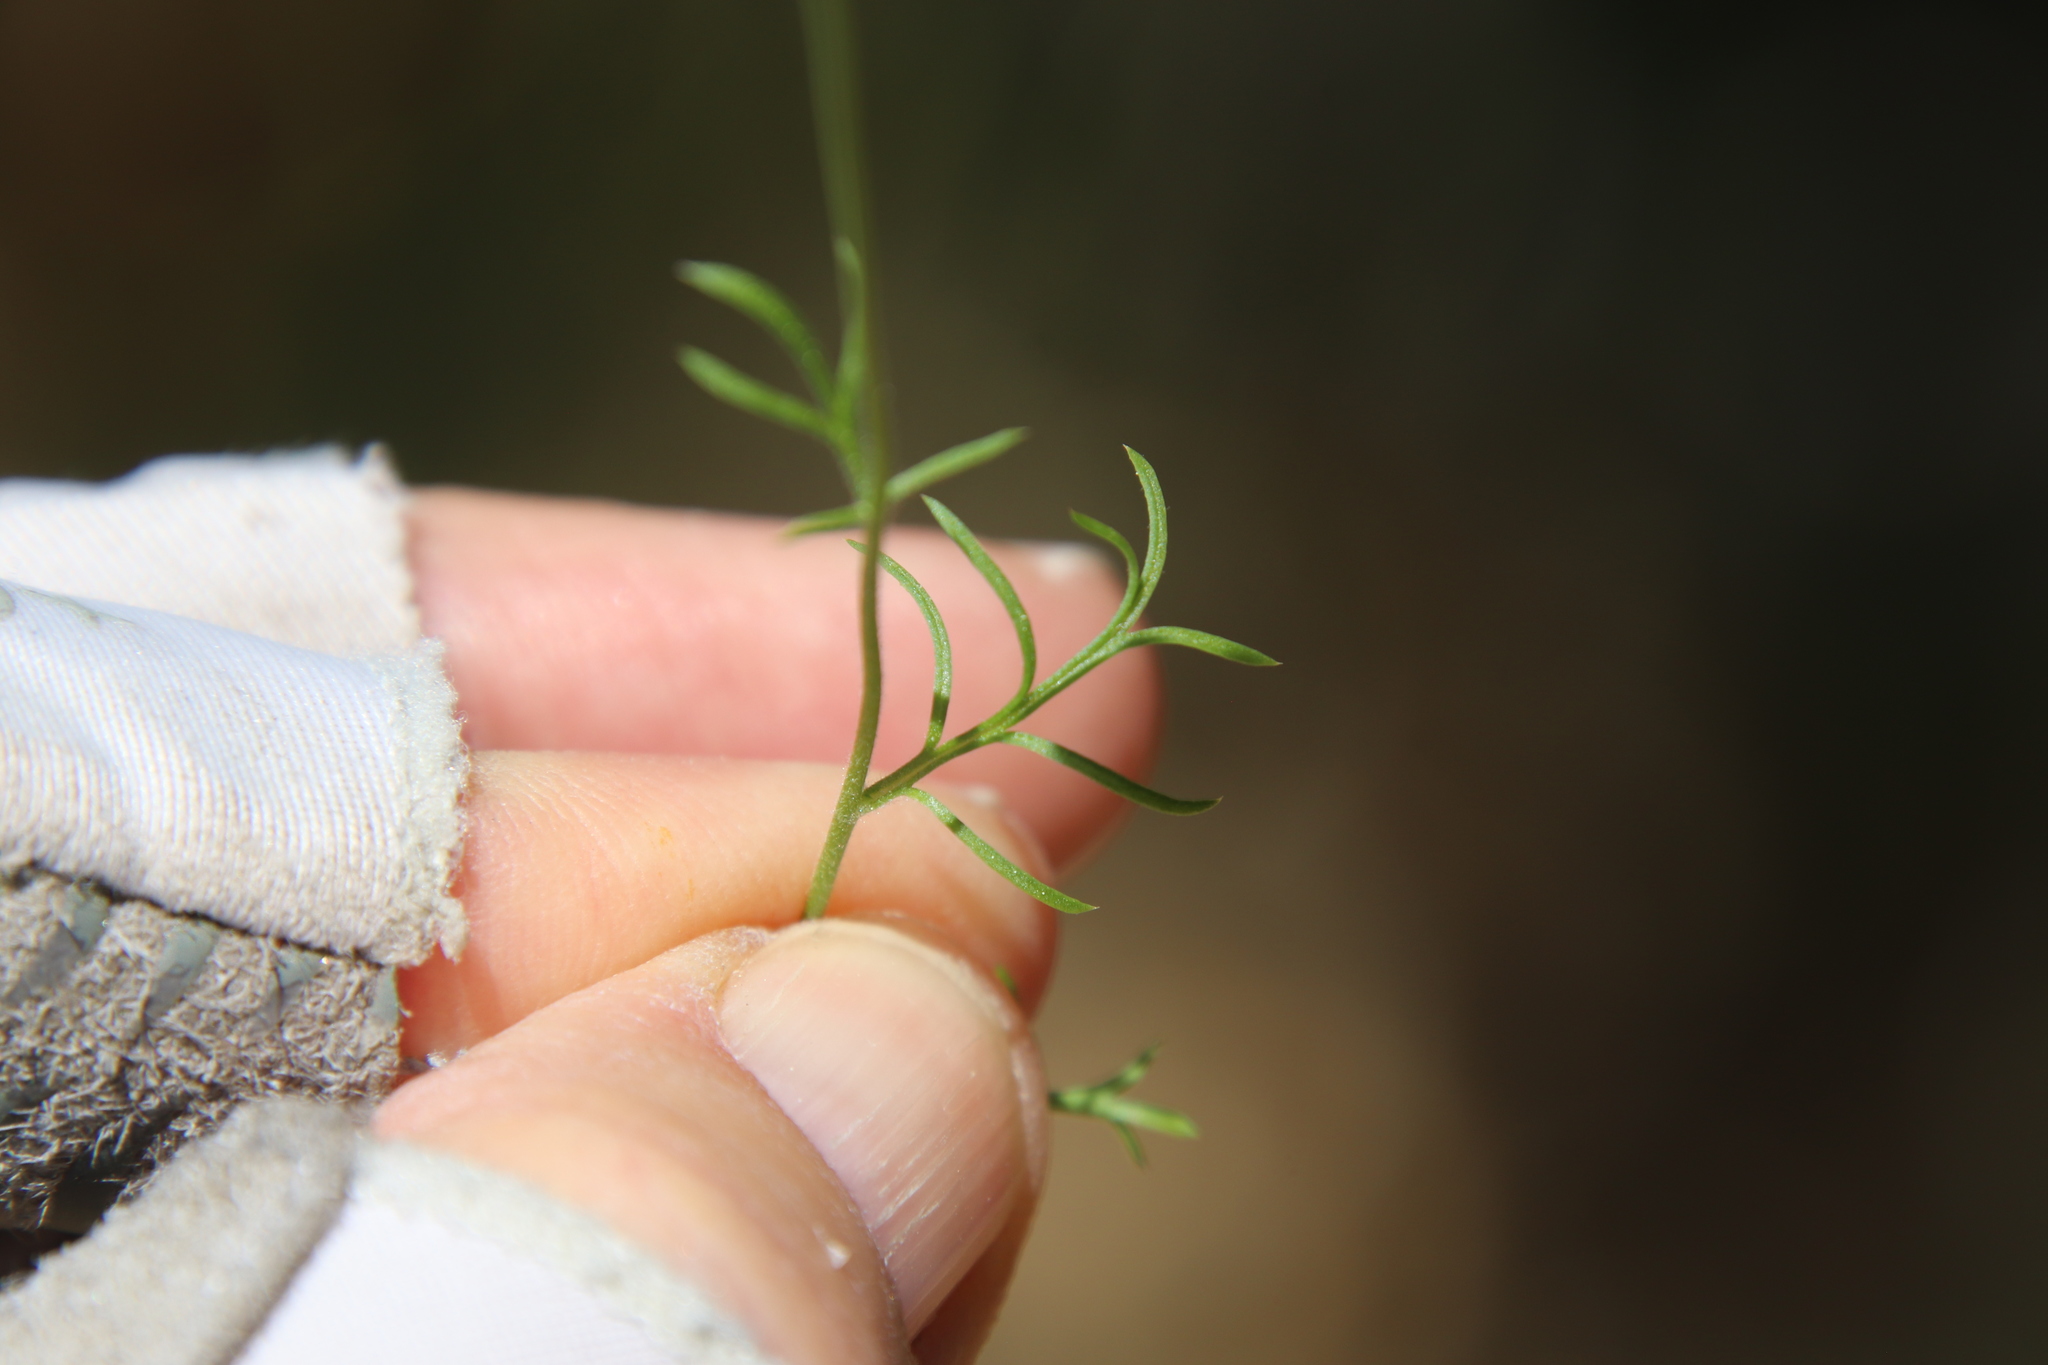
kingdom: Plantae
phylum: Tracheophyta
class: Magnoliopsida
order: Ericales
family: Polemoniaceae
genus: Gilia
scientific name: Gilia capitata
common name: Bluehead gilia
